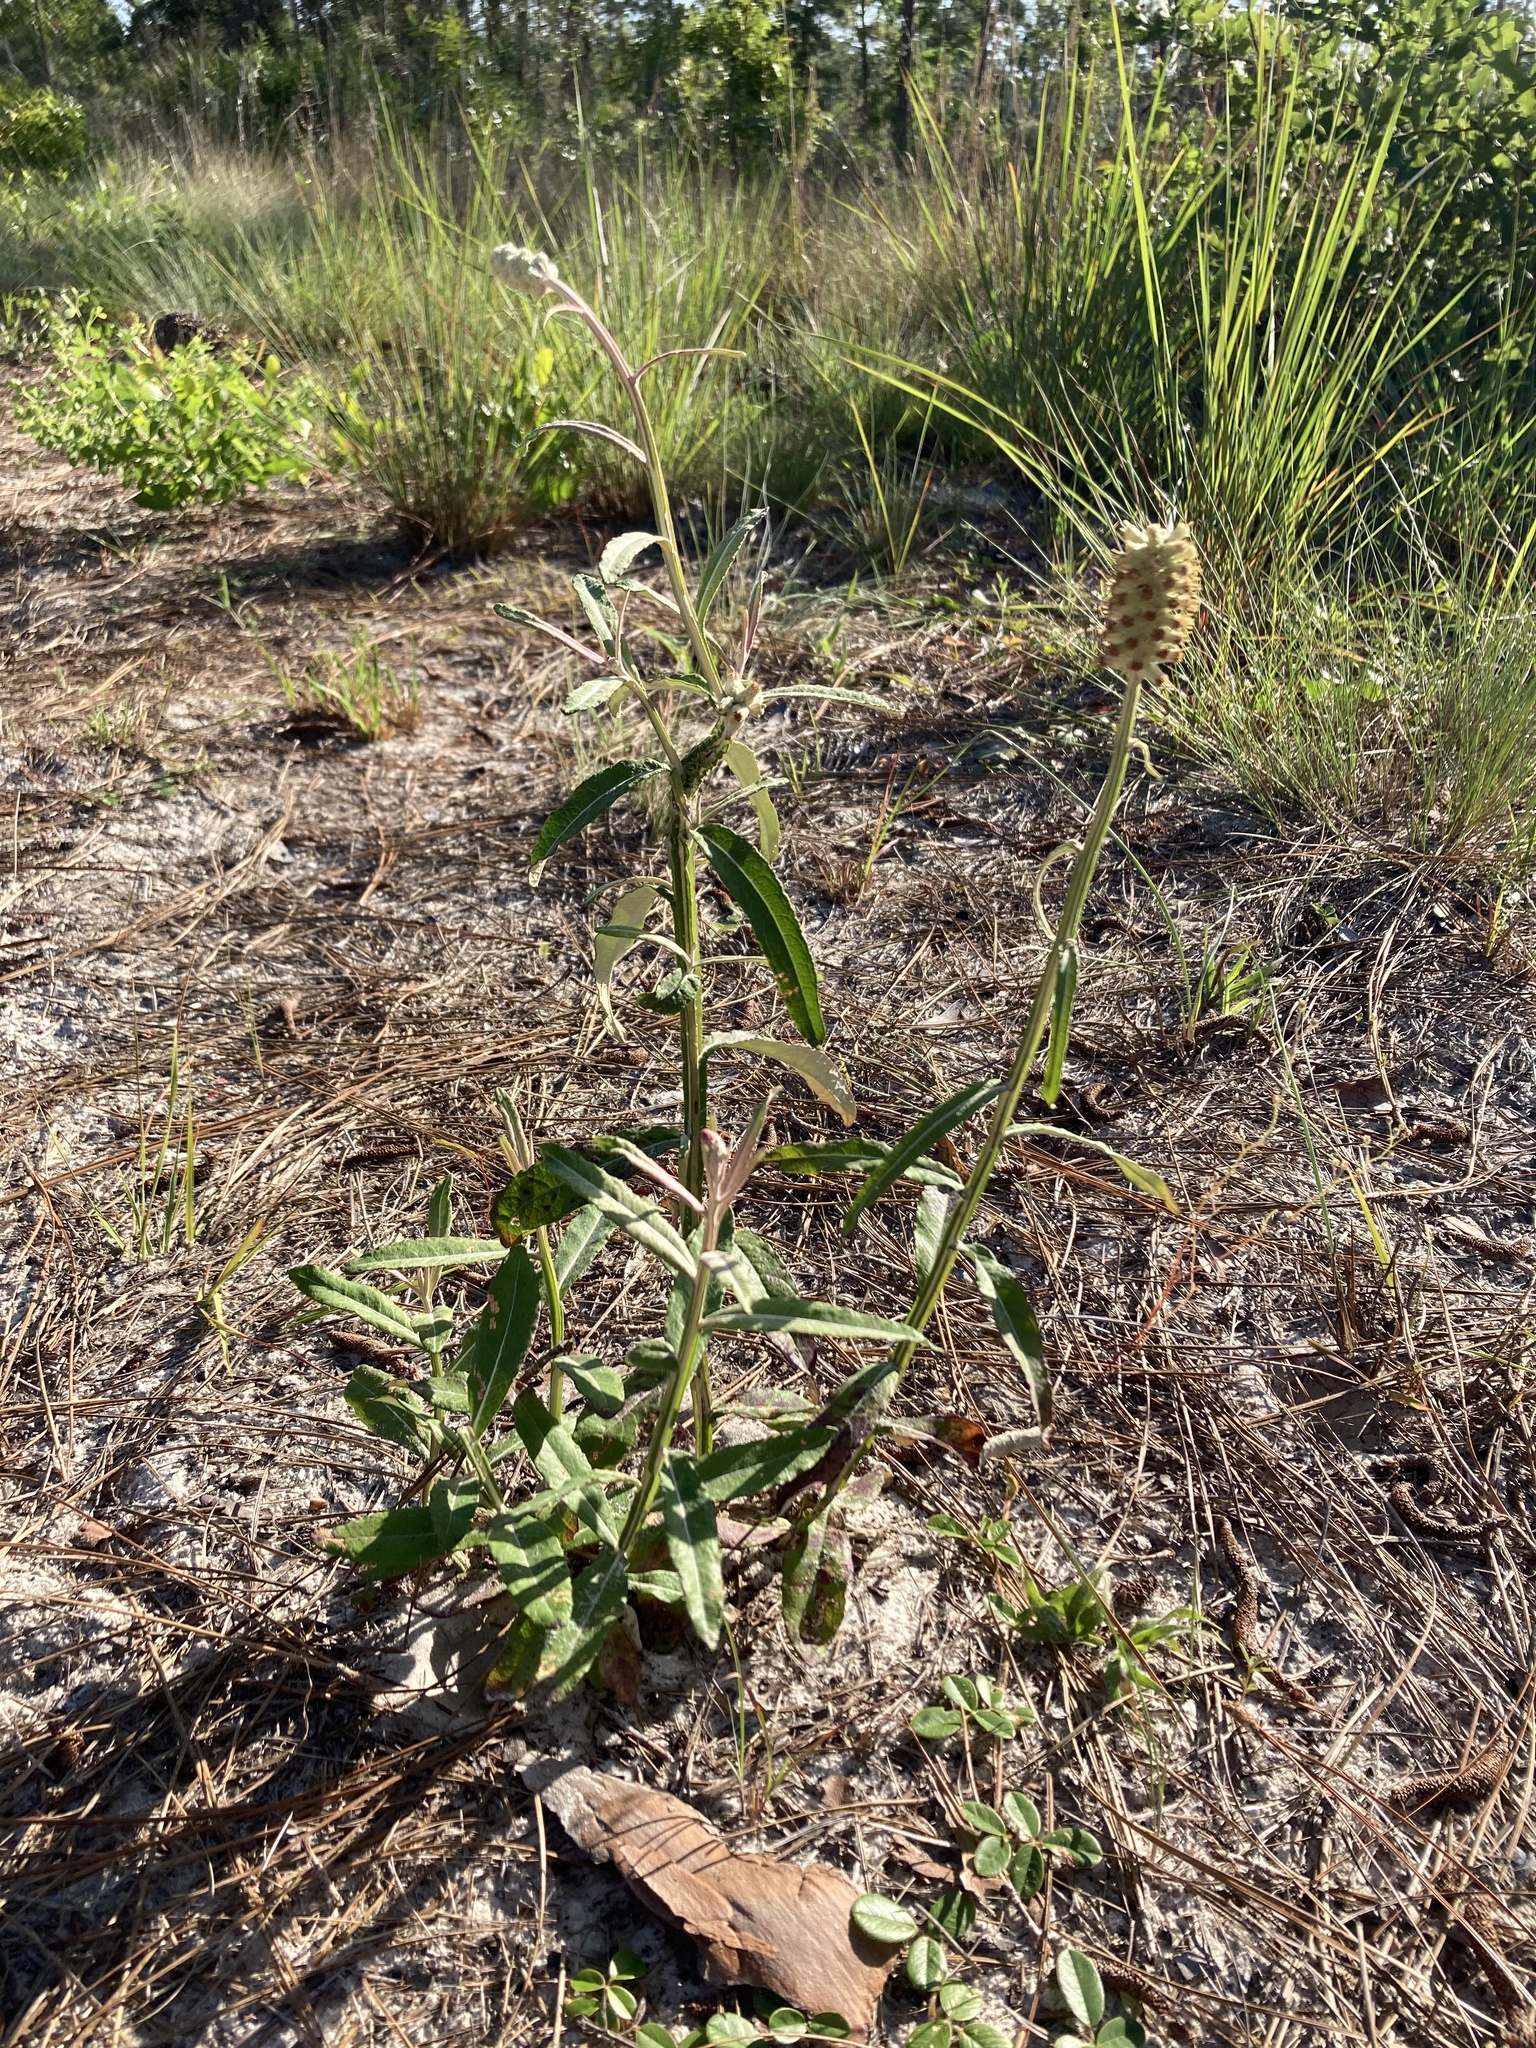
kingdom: Plantae
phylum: Tracheophyta
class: Magnoliopsida
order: Asterales
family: Asteraceae
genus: Pterocaulon
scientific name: Pterocaulon pycnostachyum
